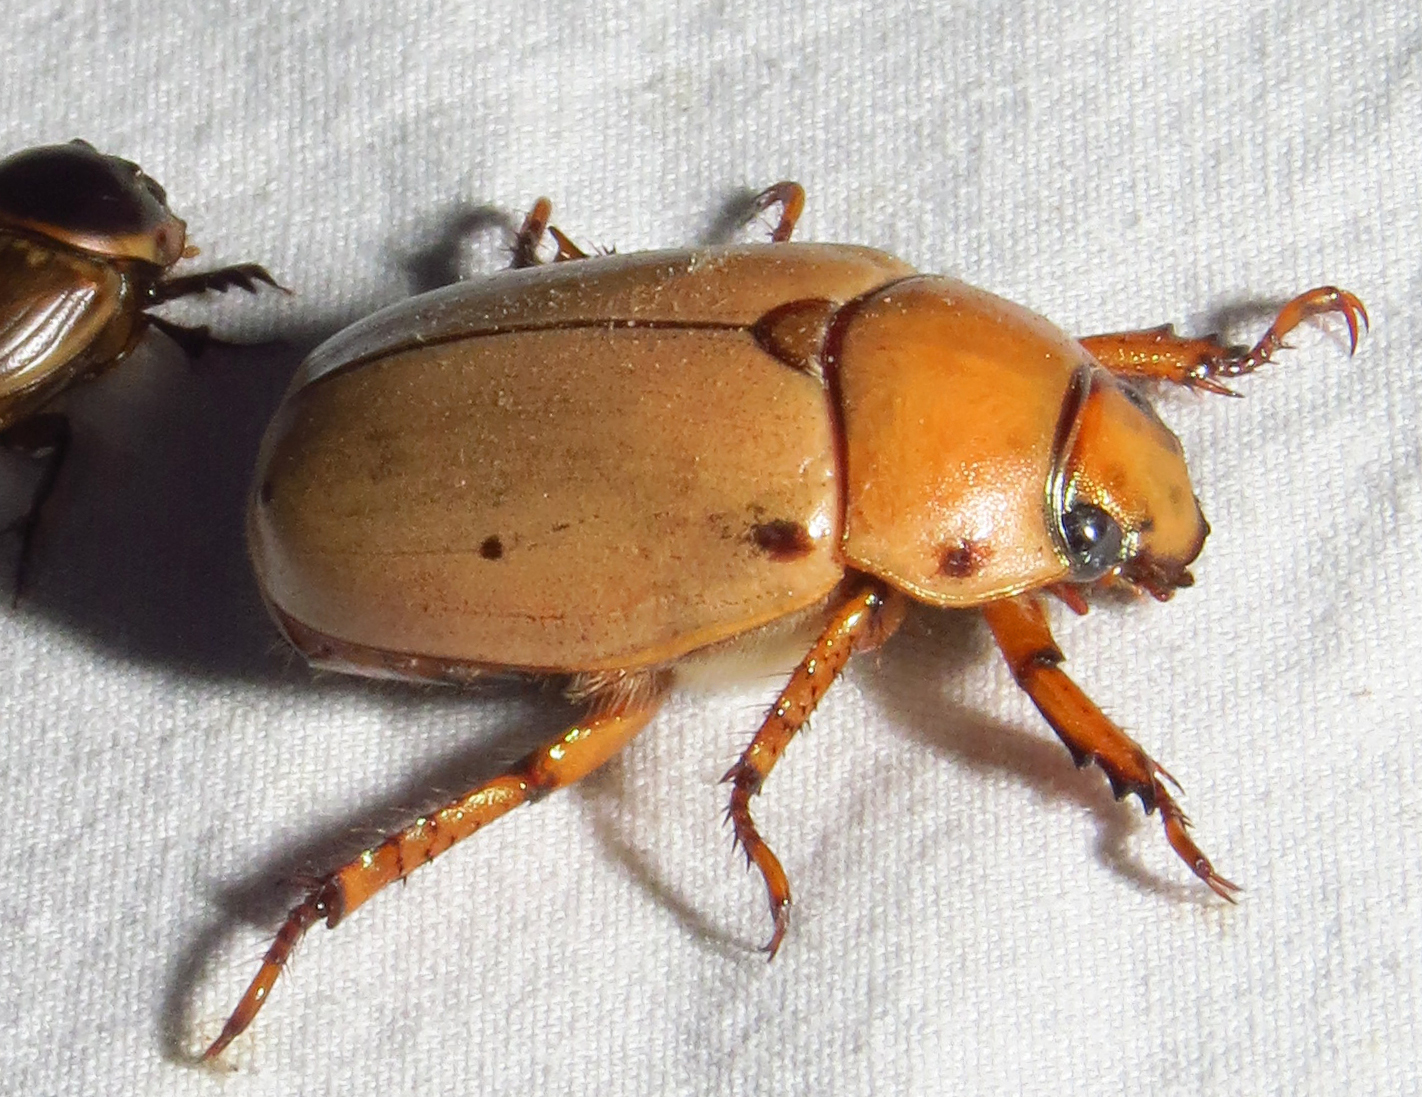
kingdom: Animalia
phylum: Arthropoda
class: Insecta
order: Coleoptera
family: Scarabaeidae
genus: Pelidnota
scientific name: Pelidnota punctata
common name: Grapevine beetle
